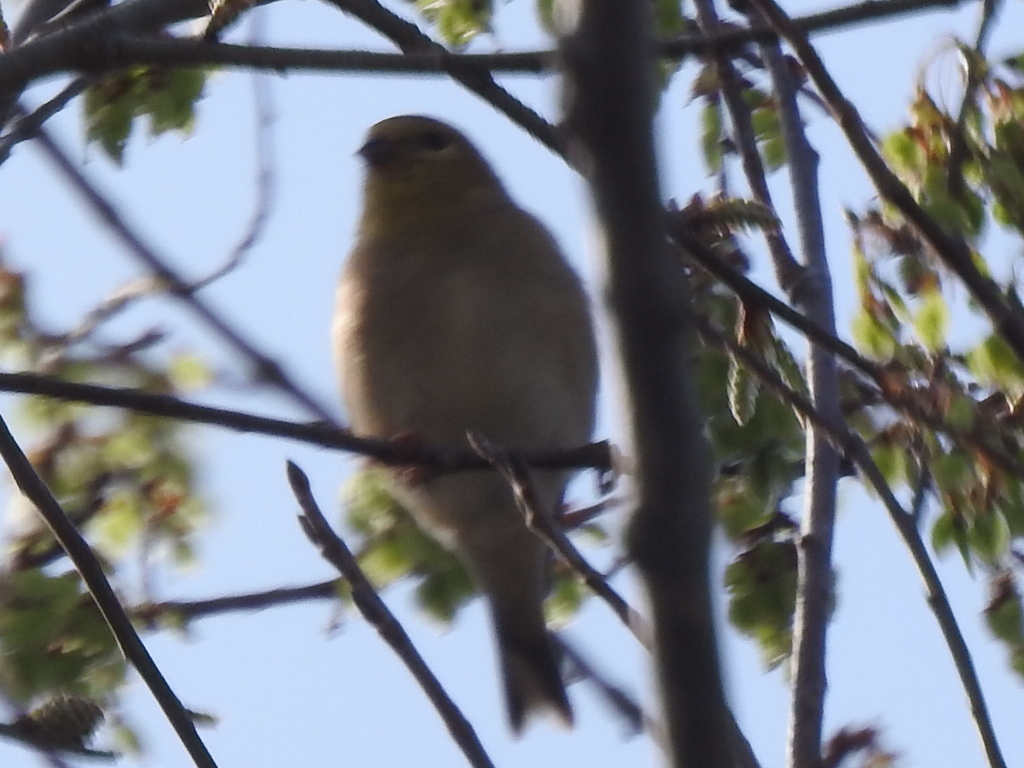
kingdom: Animalia
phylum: Chordata
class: Aves
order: Passeriformes
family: Fringillidae
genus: Spinus
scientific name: Spinus tristis
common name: American goldfinch
